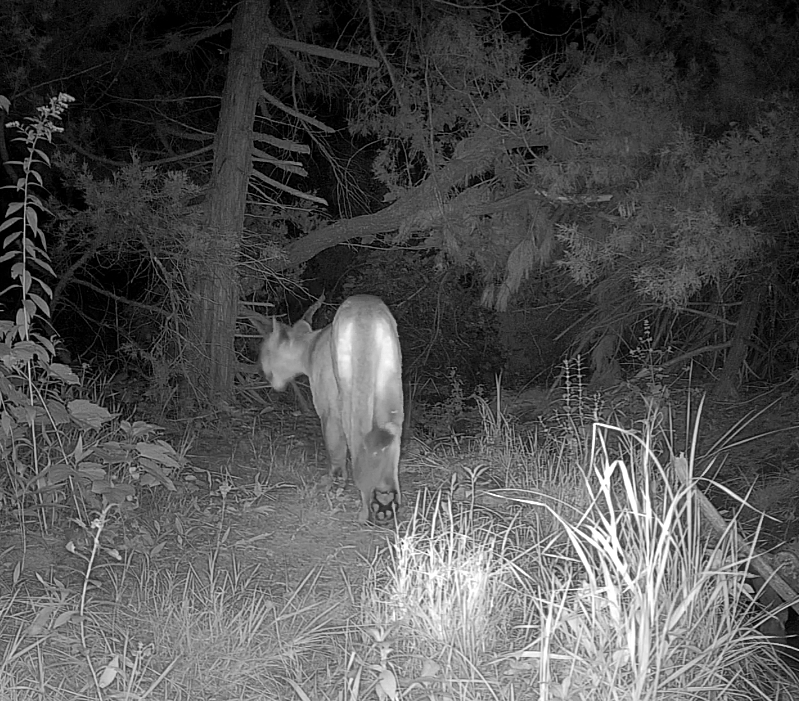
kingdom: Animalia
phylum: Chordata
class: Mammalia
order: Carnivora
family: Felidae
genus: Puma
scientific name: Puma concolor
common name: Puma
